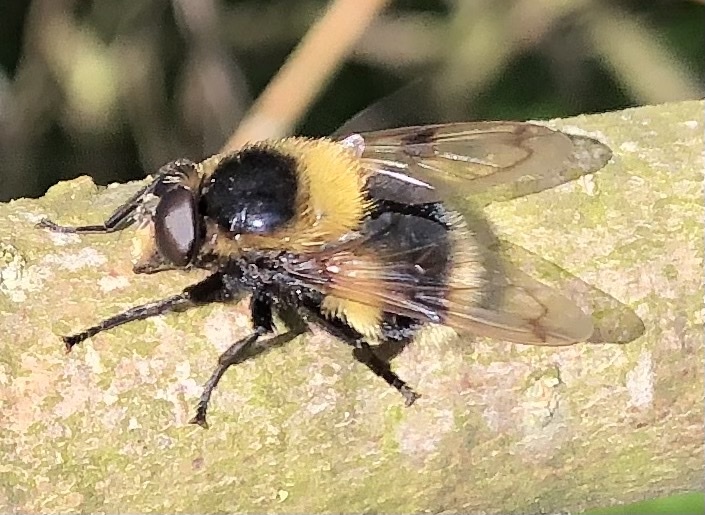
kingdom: Animalia
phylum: Arthropoda
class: Insecta
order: Diptera
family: Syrphidae
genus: Volucella
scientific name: Volucella bombylans
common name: Bumble bee hover fly
